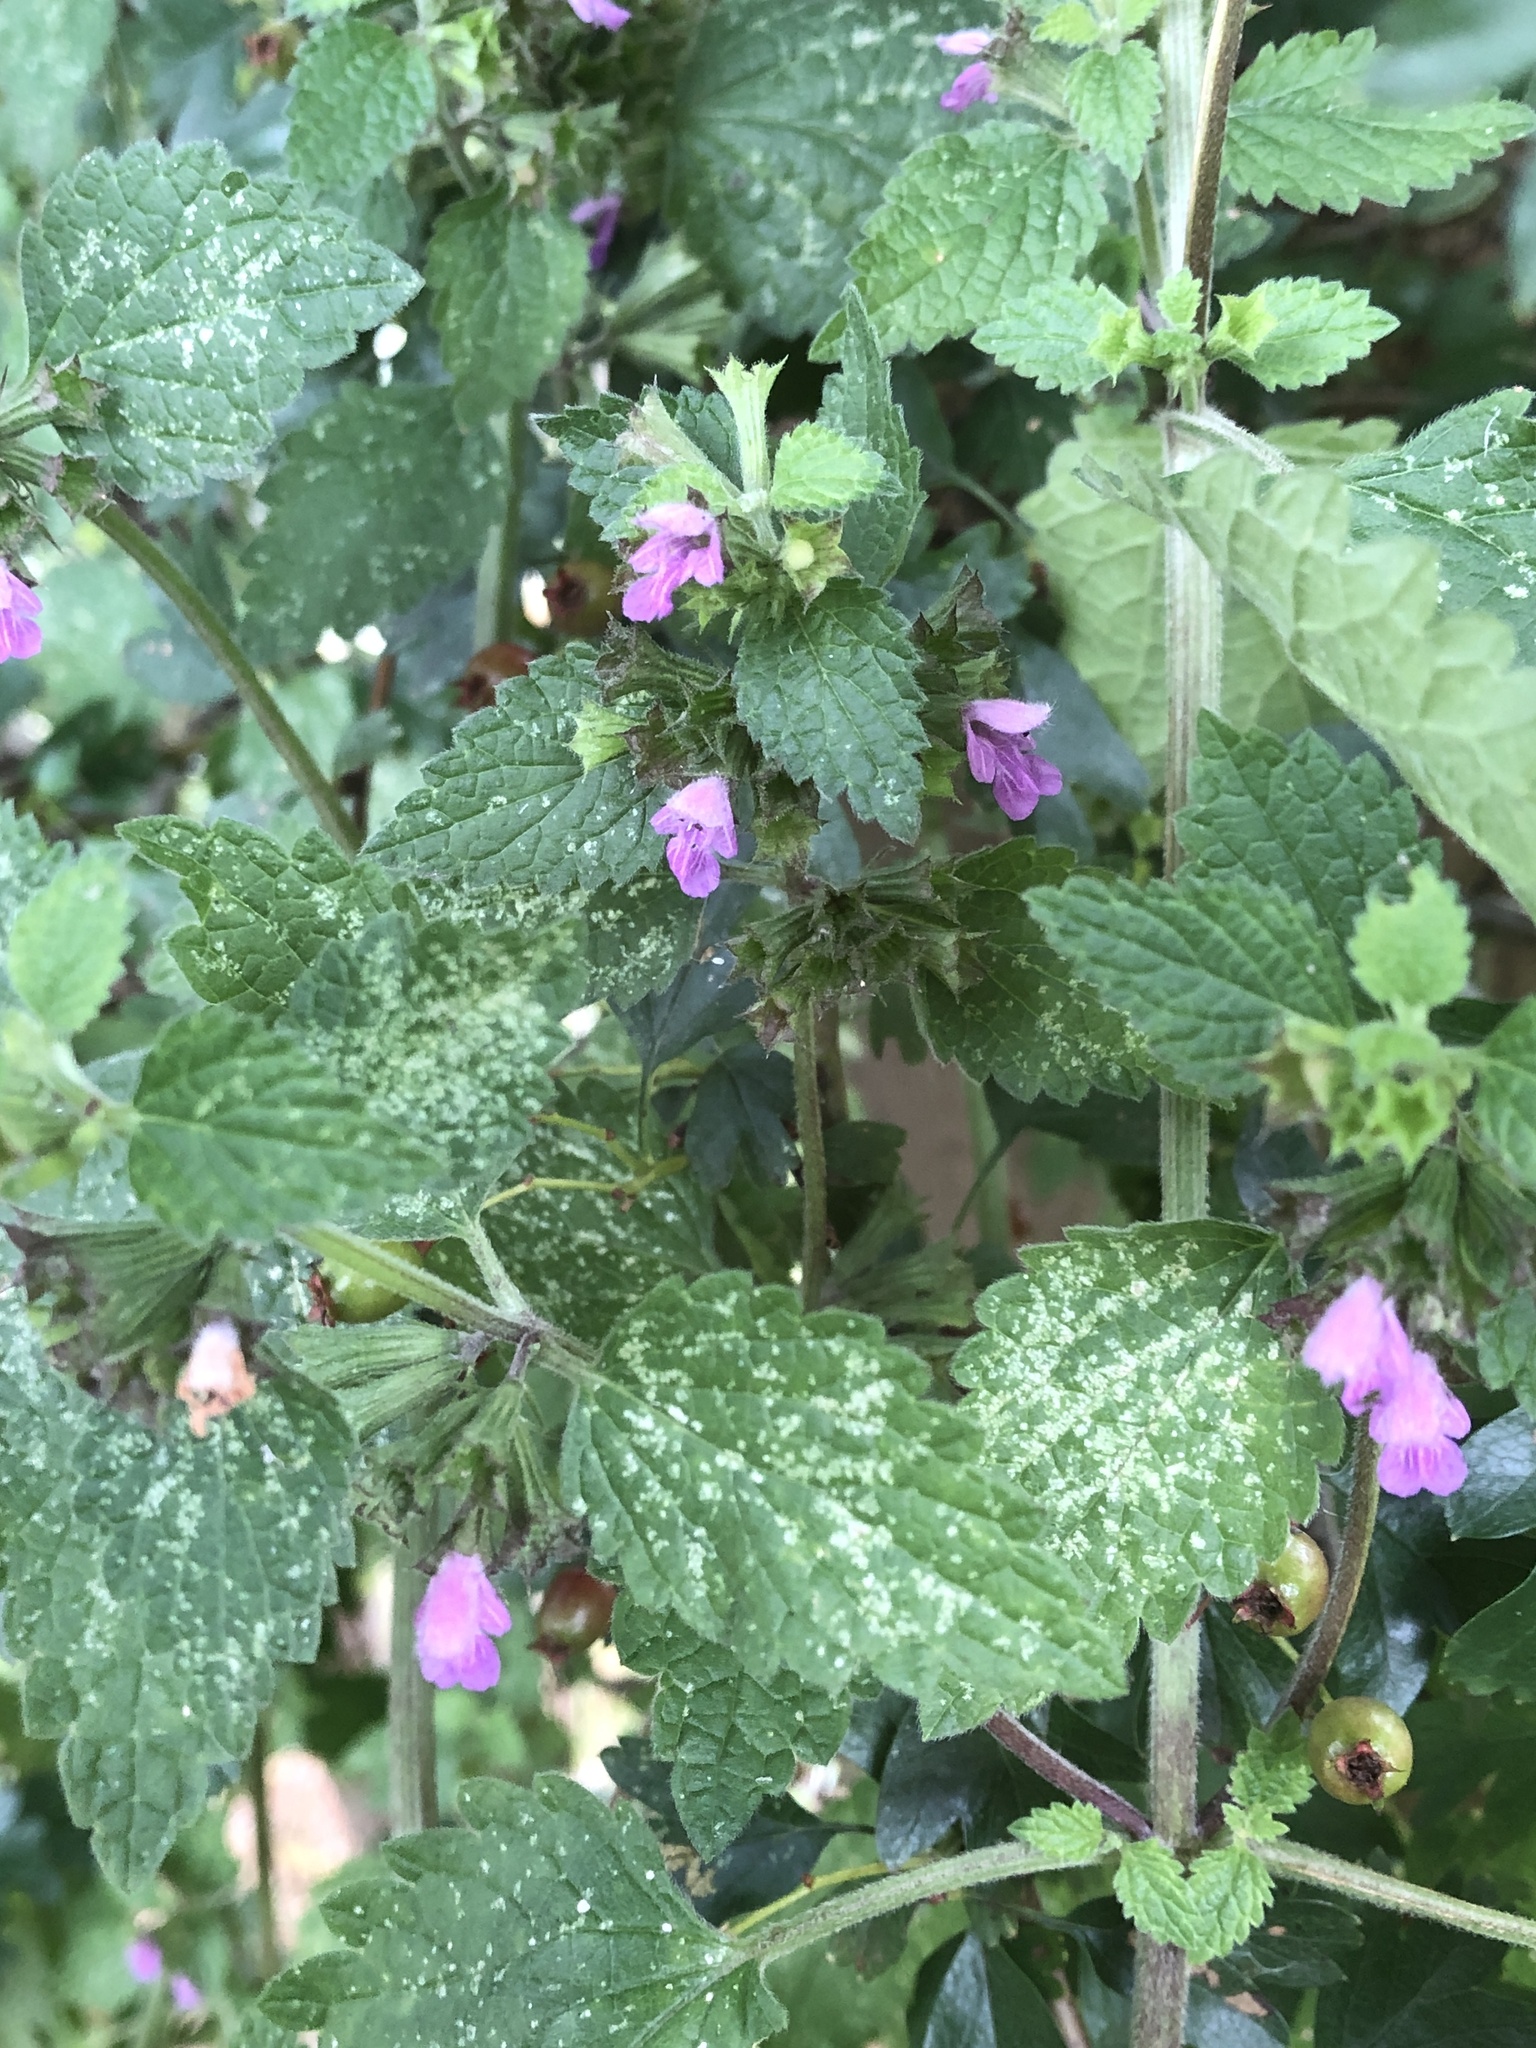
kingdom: Plantae
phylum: Tracheophyta
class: Magnoliopsida
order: Lamiales
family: Lamiaceae
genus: Ballota
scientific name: Ballota nigra
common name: Black horehound
